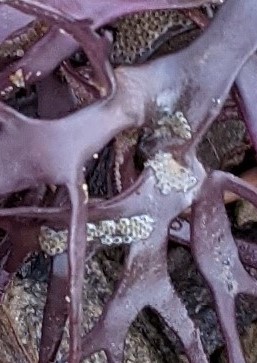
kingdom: Animalia
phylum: Bryozoa
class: Gymnolaemata
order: Cheilostomatida
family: Electridae
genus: Electra
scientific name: Electra pilosa
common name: Hairy sea-mat
